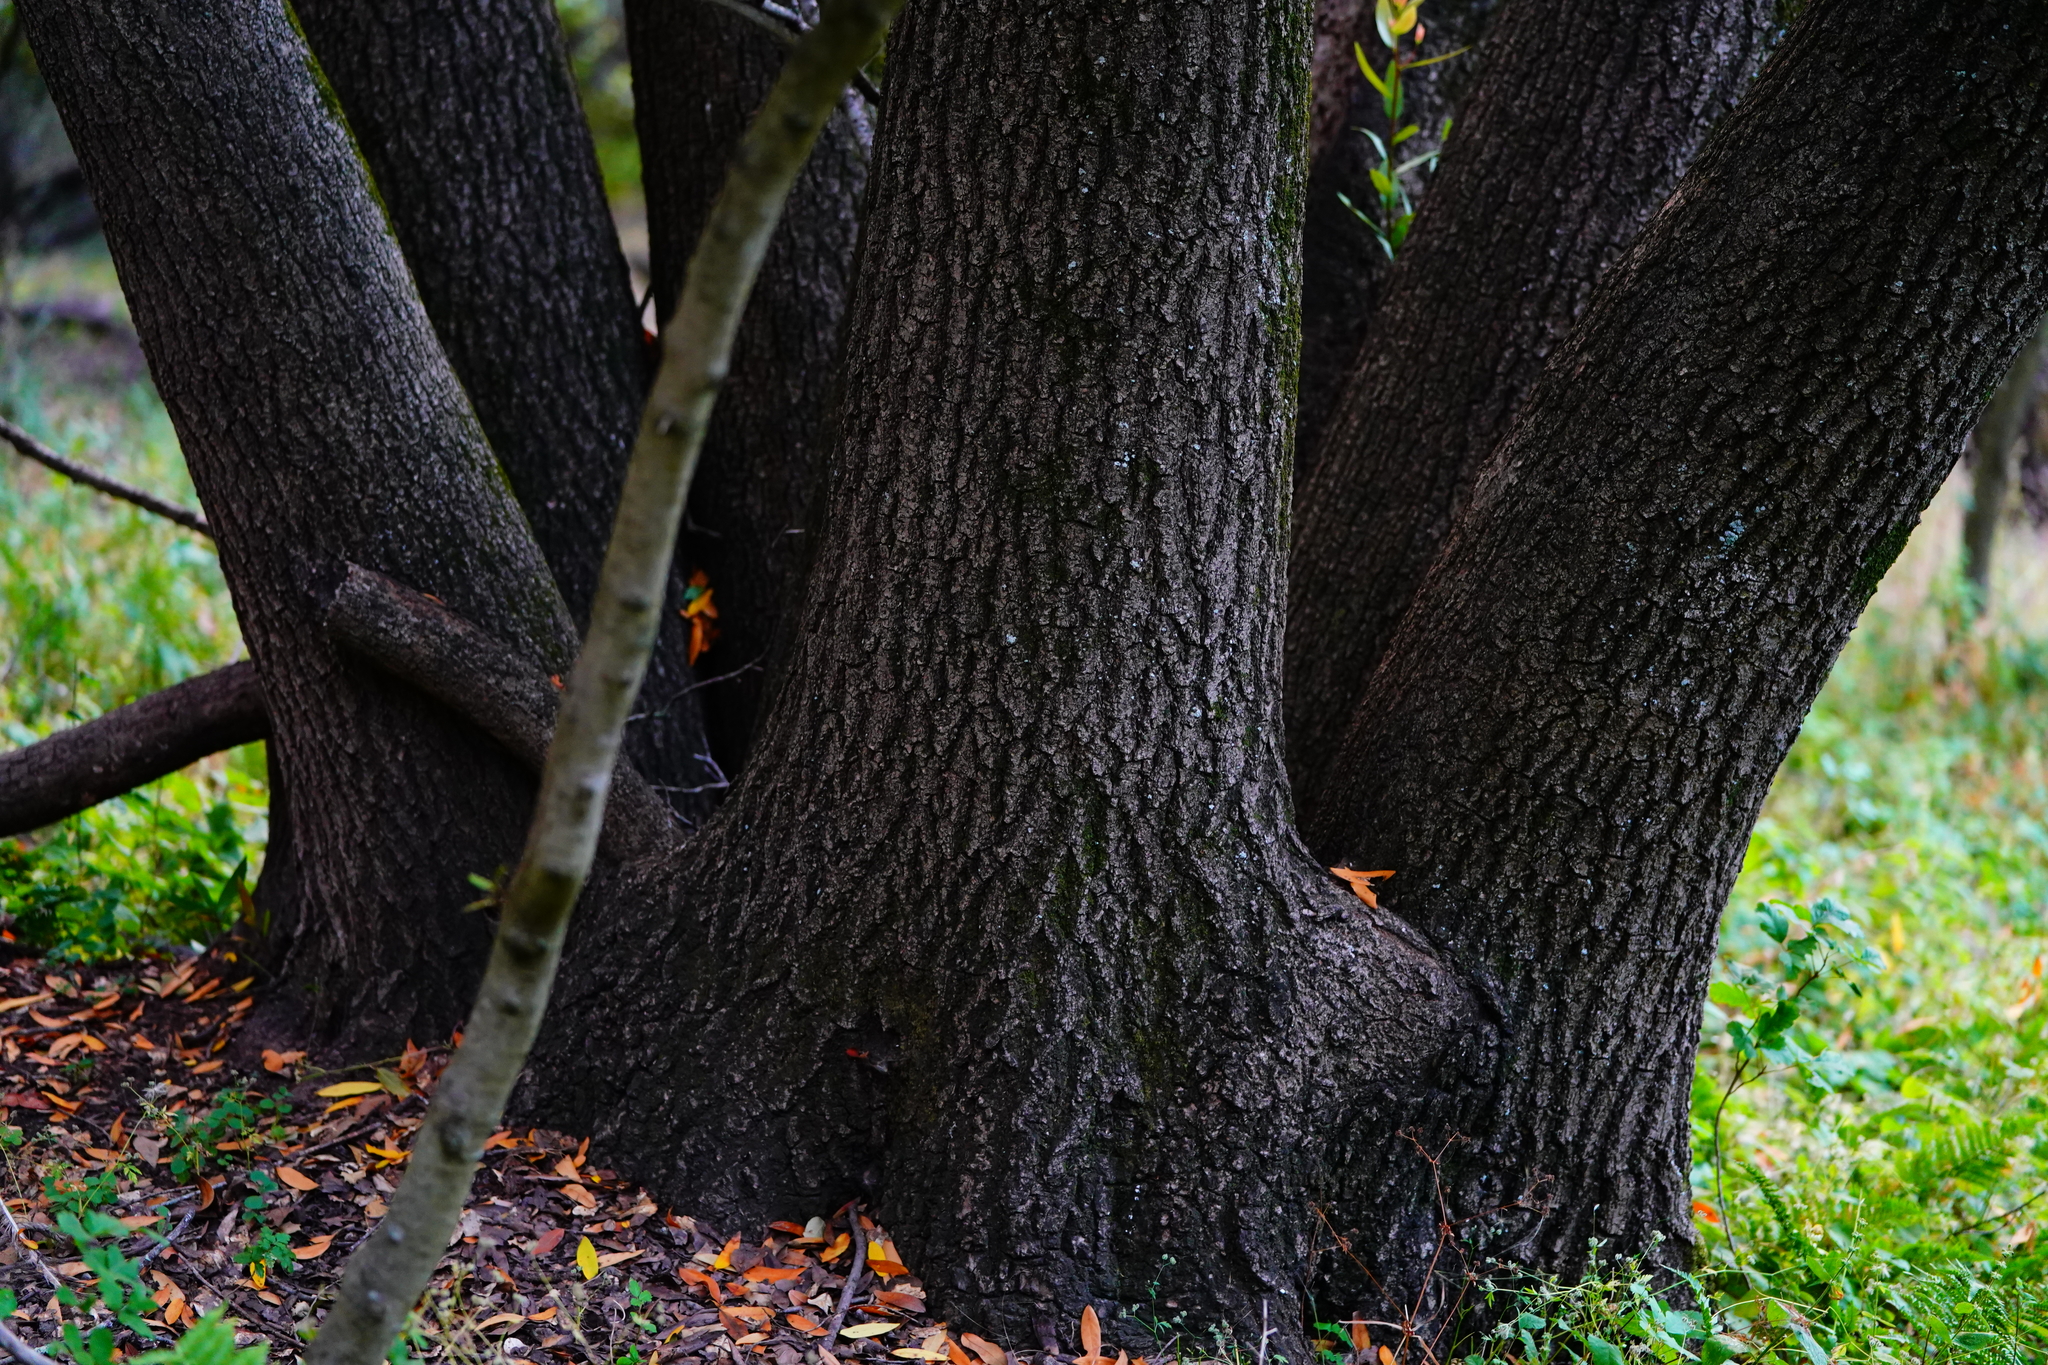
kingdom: Plantae
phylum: Tracheophyta
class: Magnoliopsida
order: Laurales
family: Lauraceae
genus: Umbellularia
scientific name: Umbellularia californica
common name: California bay
